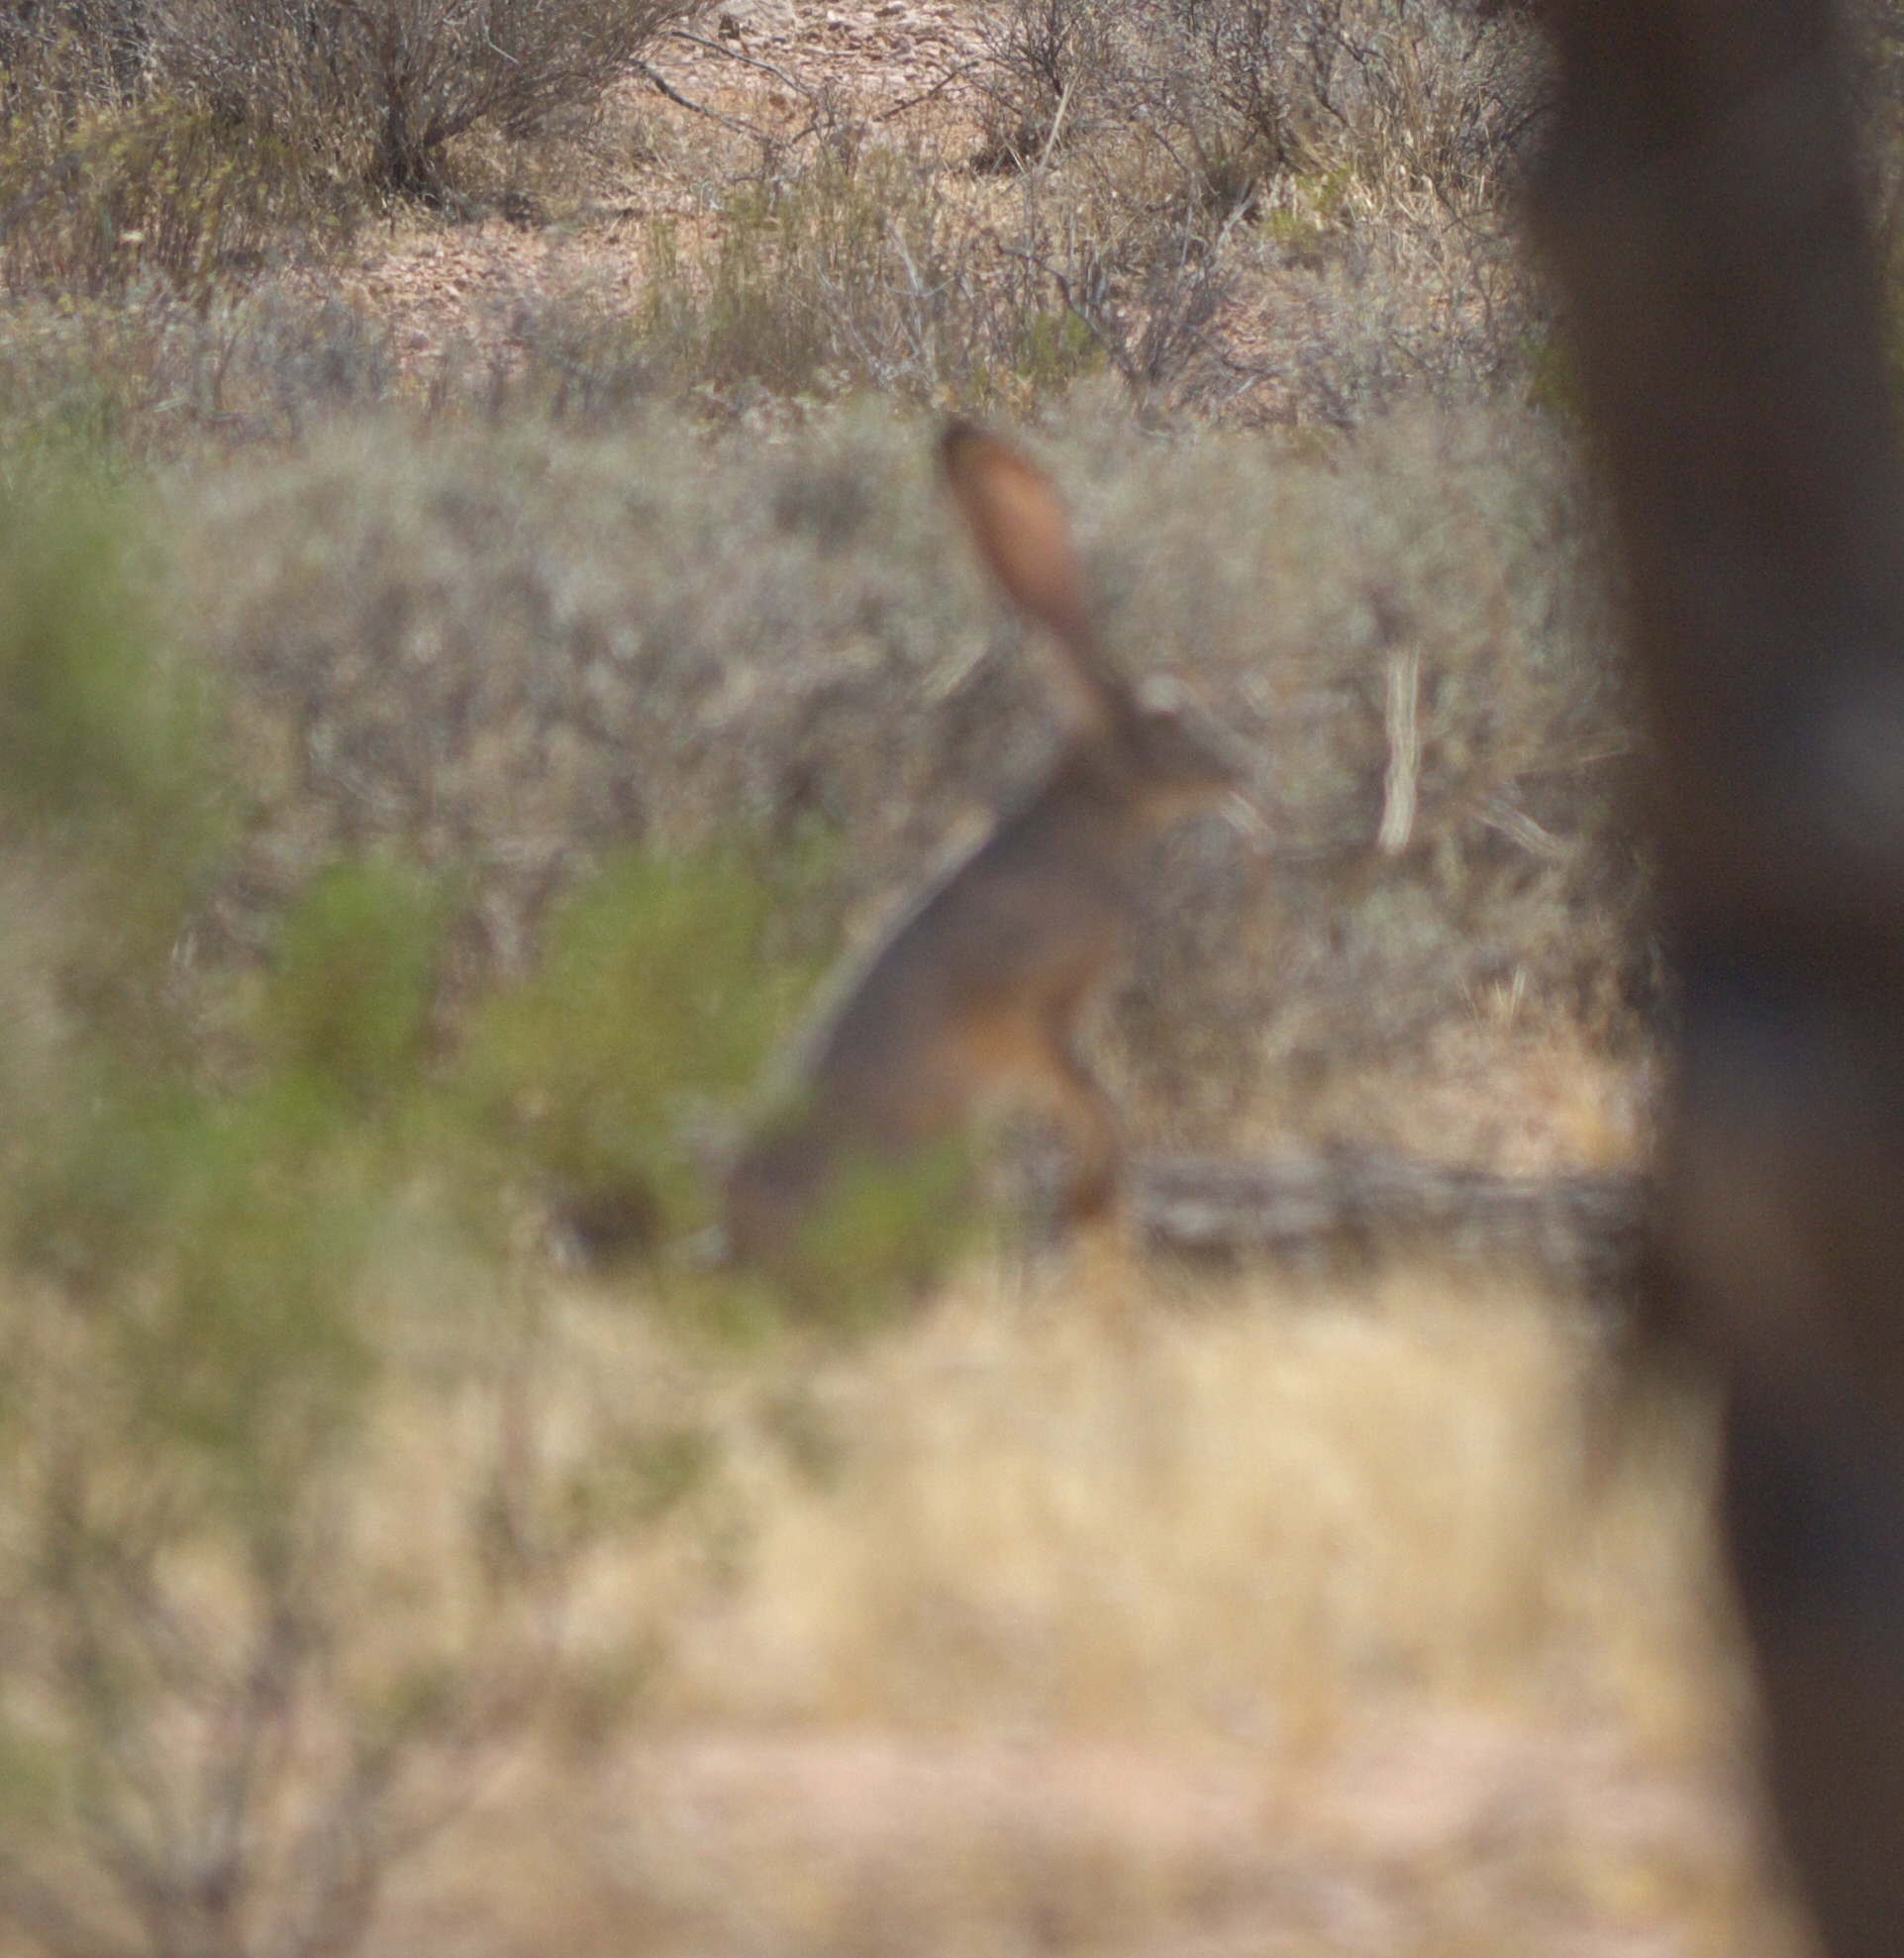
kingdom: Animalia
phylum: Chordata
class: Mammalia
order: Lagomorpha
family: Leporidae
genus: Lepus
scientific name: Lepus californicus
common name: Black-tailed jackrabbit
